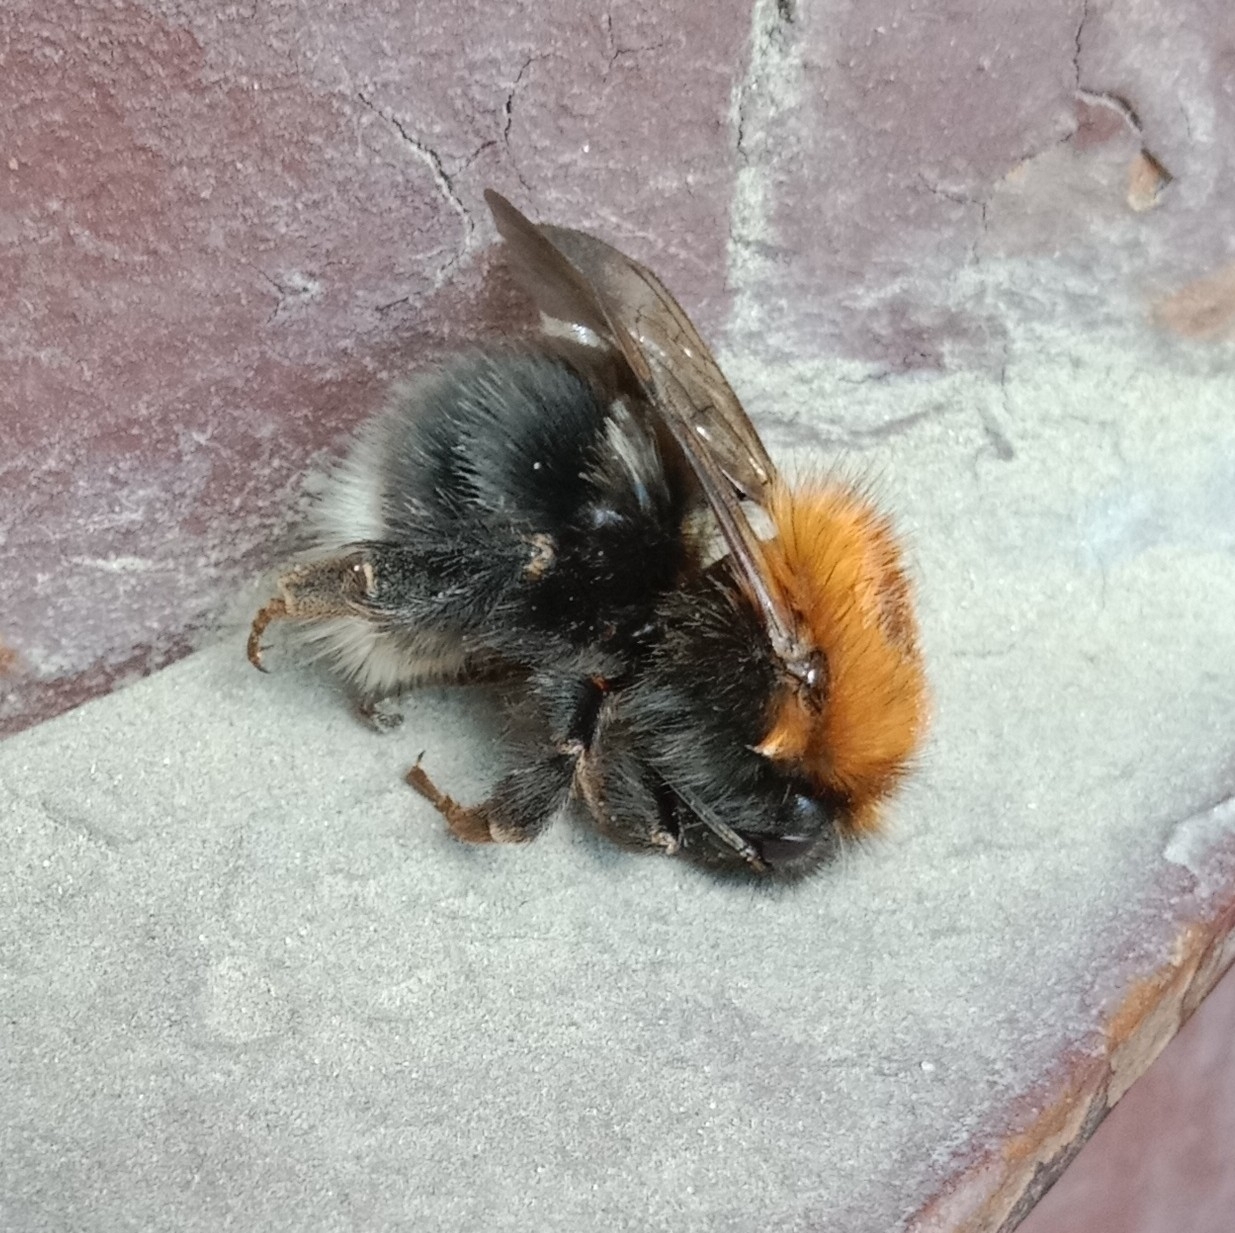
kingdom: Animalia
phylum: Arthropoda
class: Insecta
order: Hymenoptera
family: Apidae
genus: Bombus
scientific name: Bombus hypnorum
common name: New garden bumblebee
